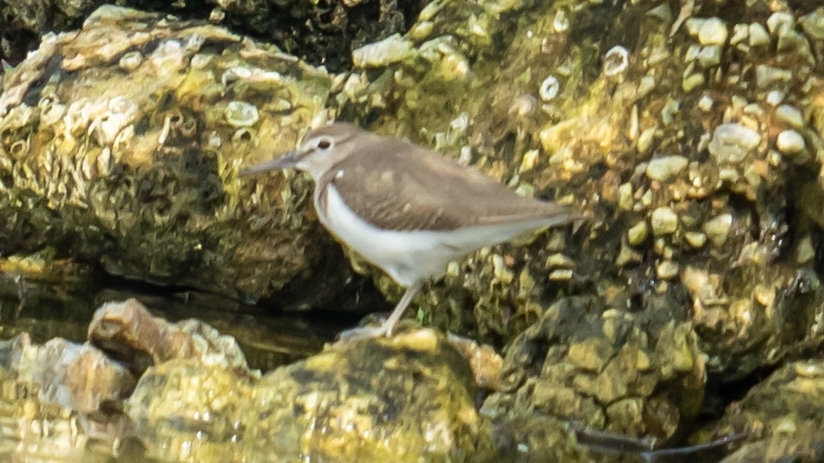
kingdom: Animalia
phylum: Chordata
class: Aves
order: Charadriiformes
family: Scolopacidae
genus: Actitis
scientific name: Actitis hypoleucos
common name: Common sandpiper
